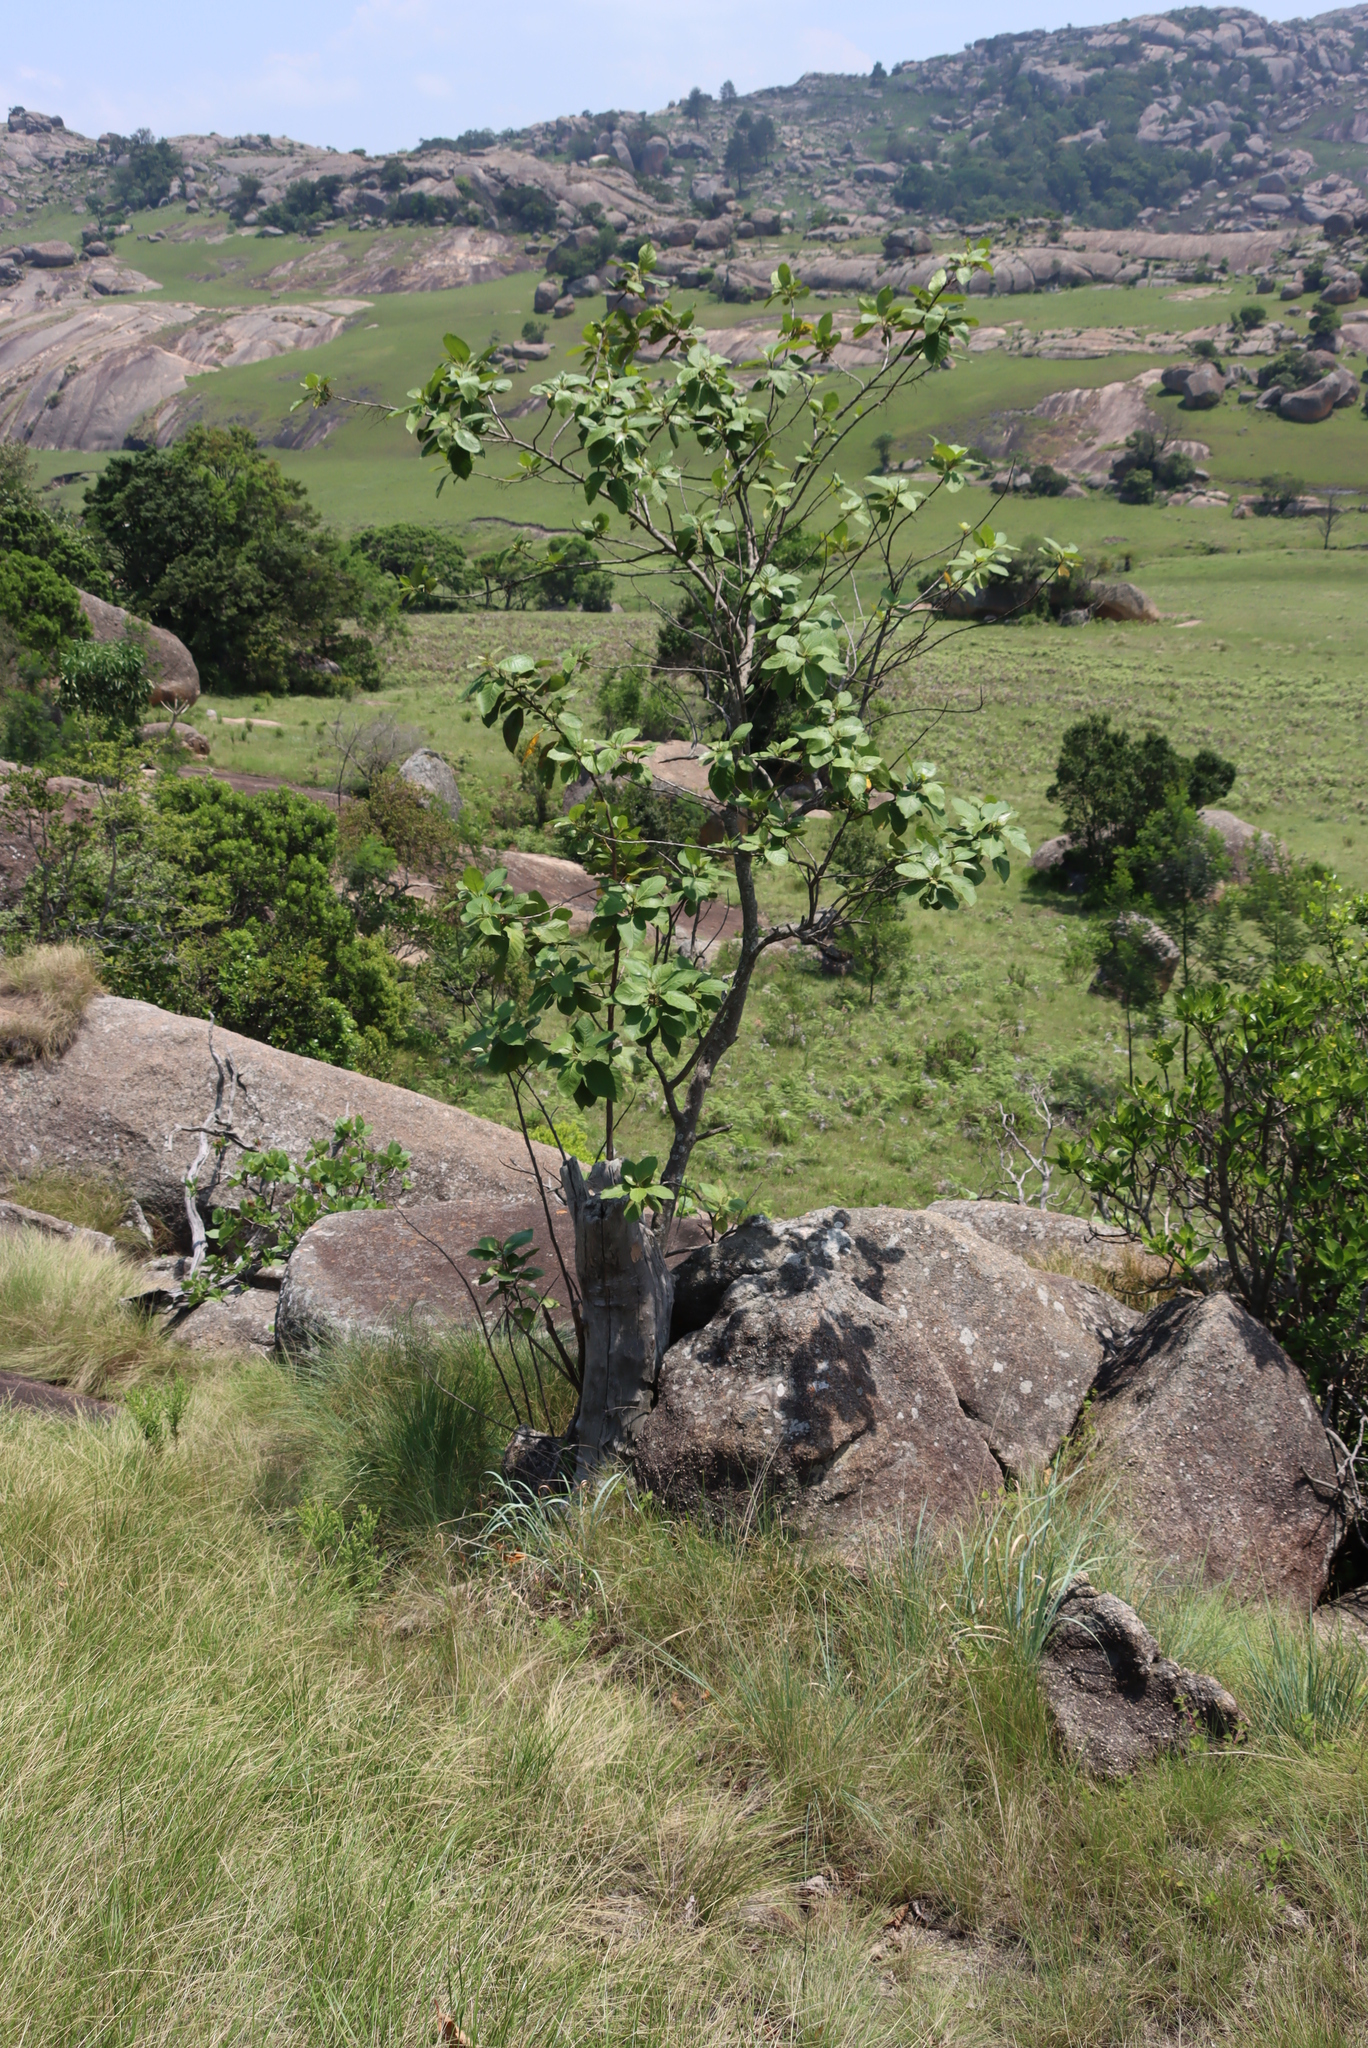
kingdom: Plantae
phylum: Tracheophyta
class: Magnoliopsida
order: Ericales
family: Primulaceae
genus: Maesa
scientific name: Maesa lanceolata
